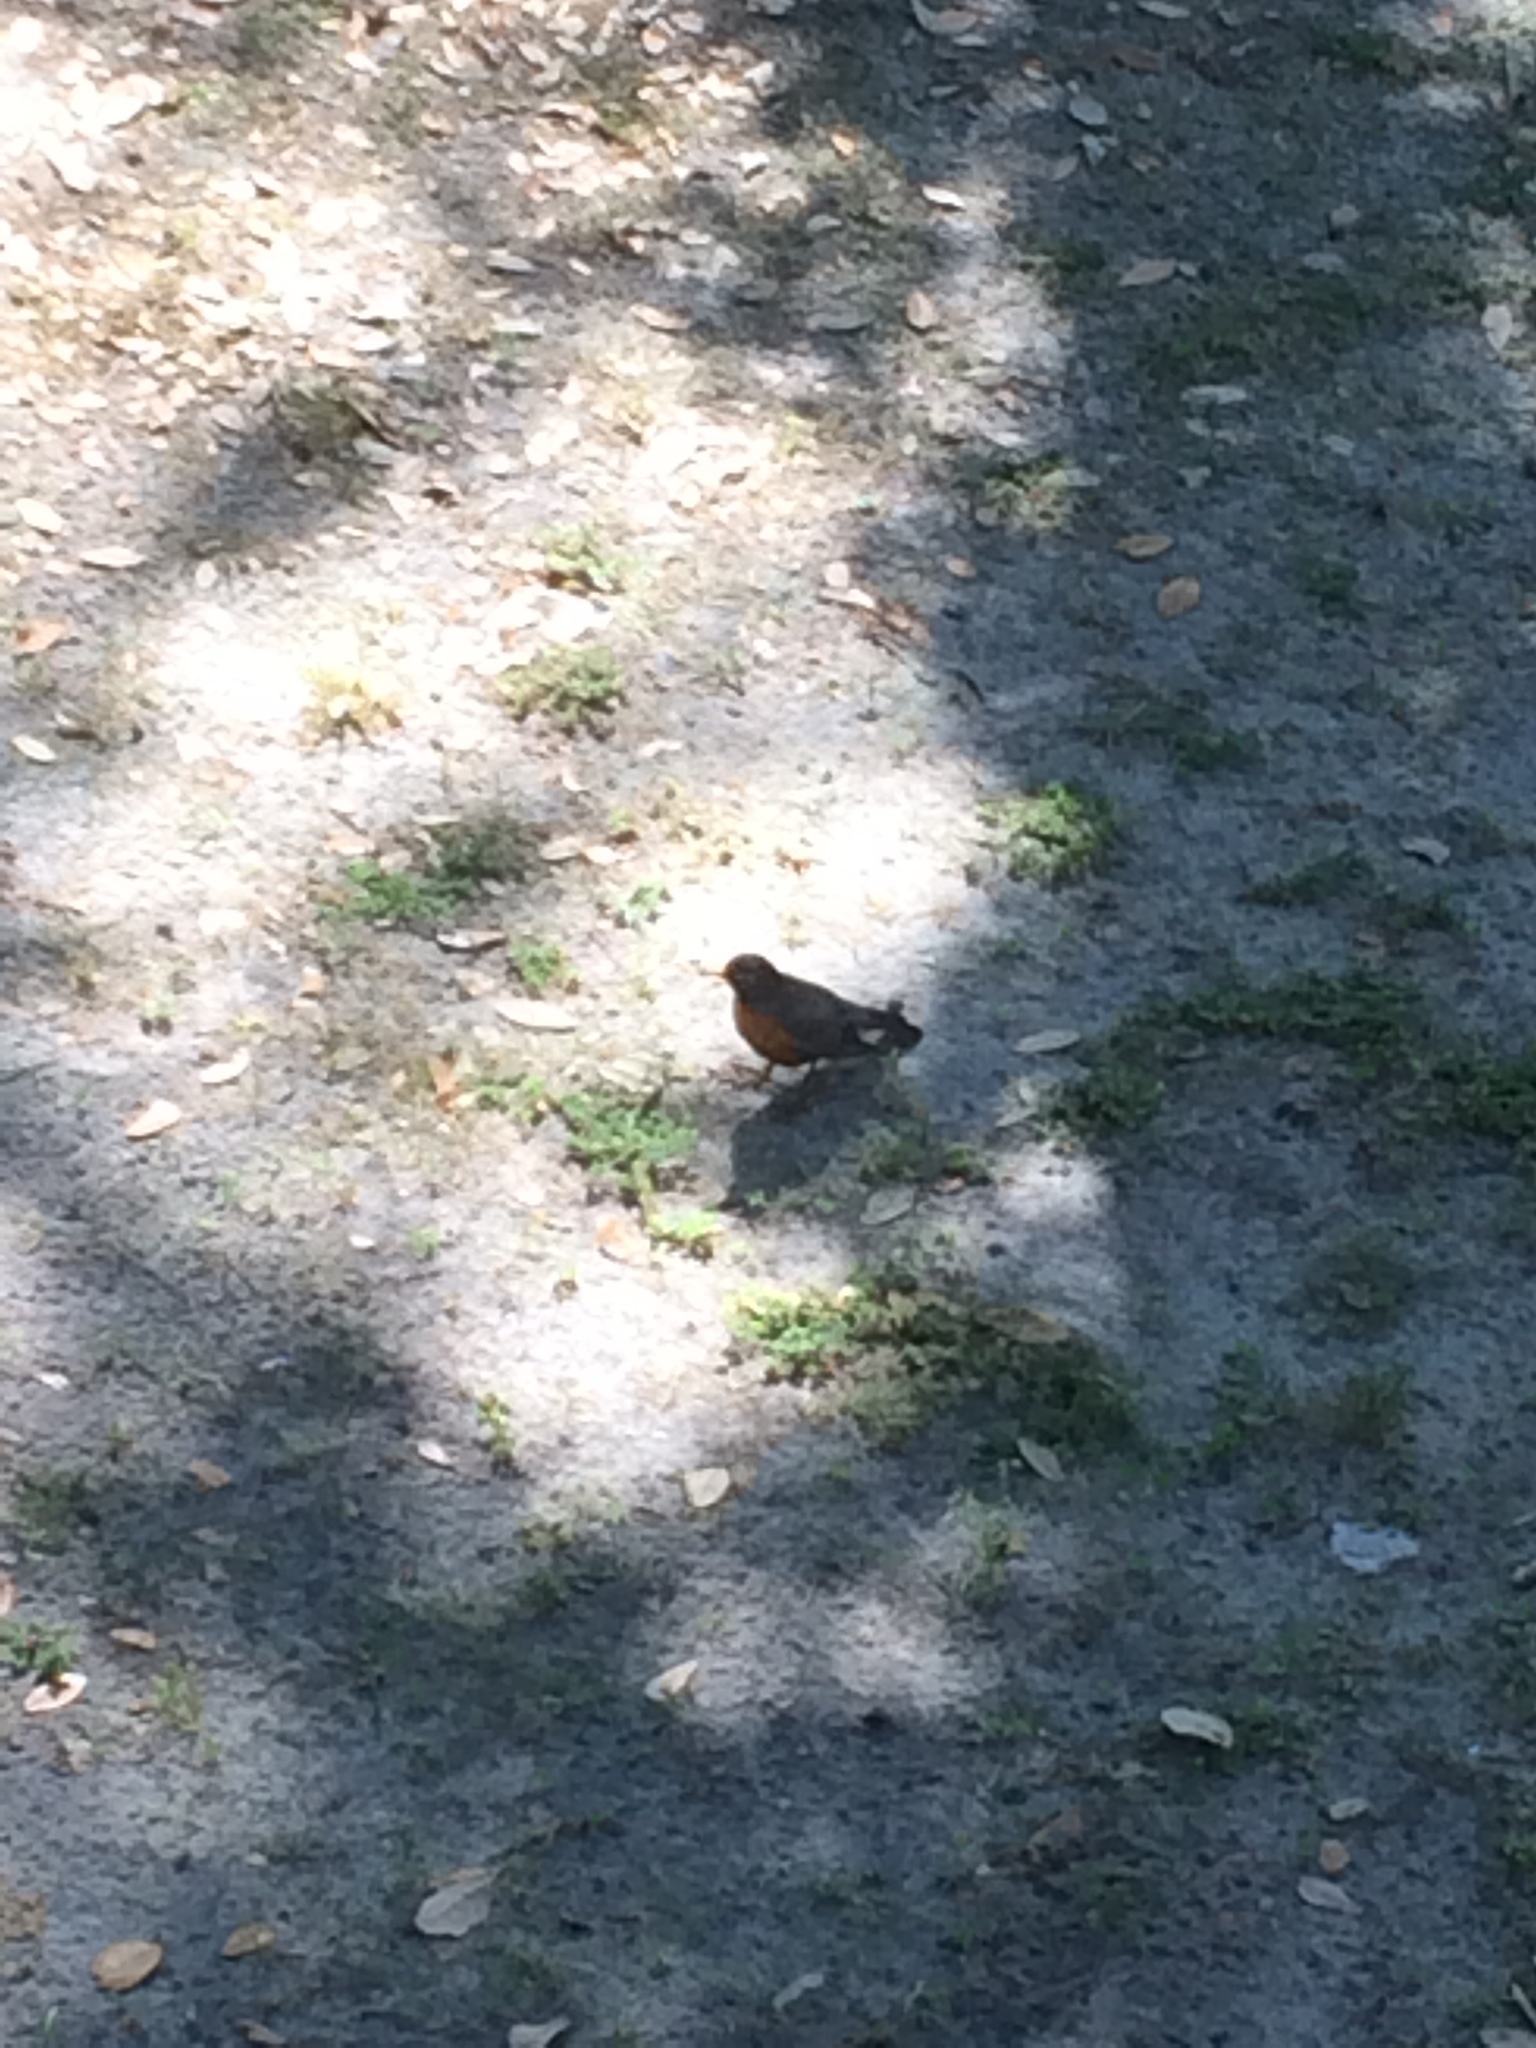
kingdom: Animalia
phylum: Chordata
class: Aves
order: Passeriformes
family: Turdidae
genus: Turdus
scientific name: Turdus migratorius
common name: American robin
